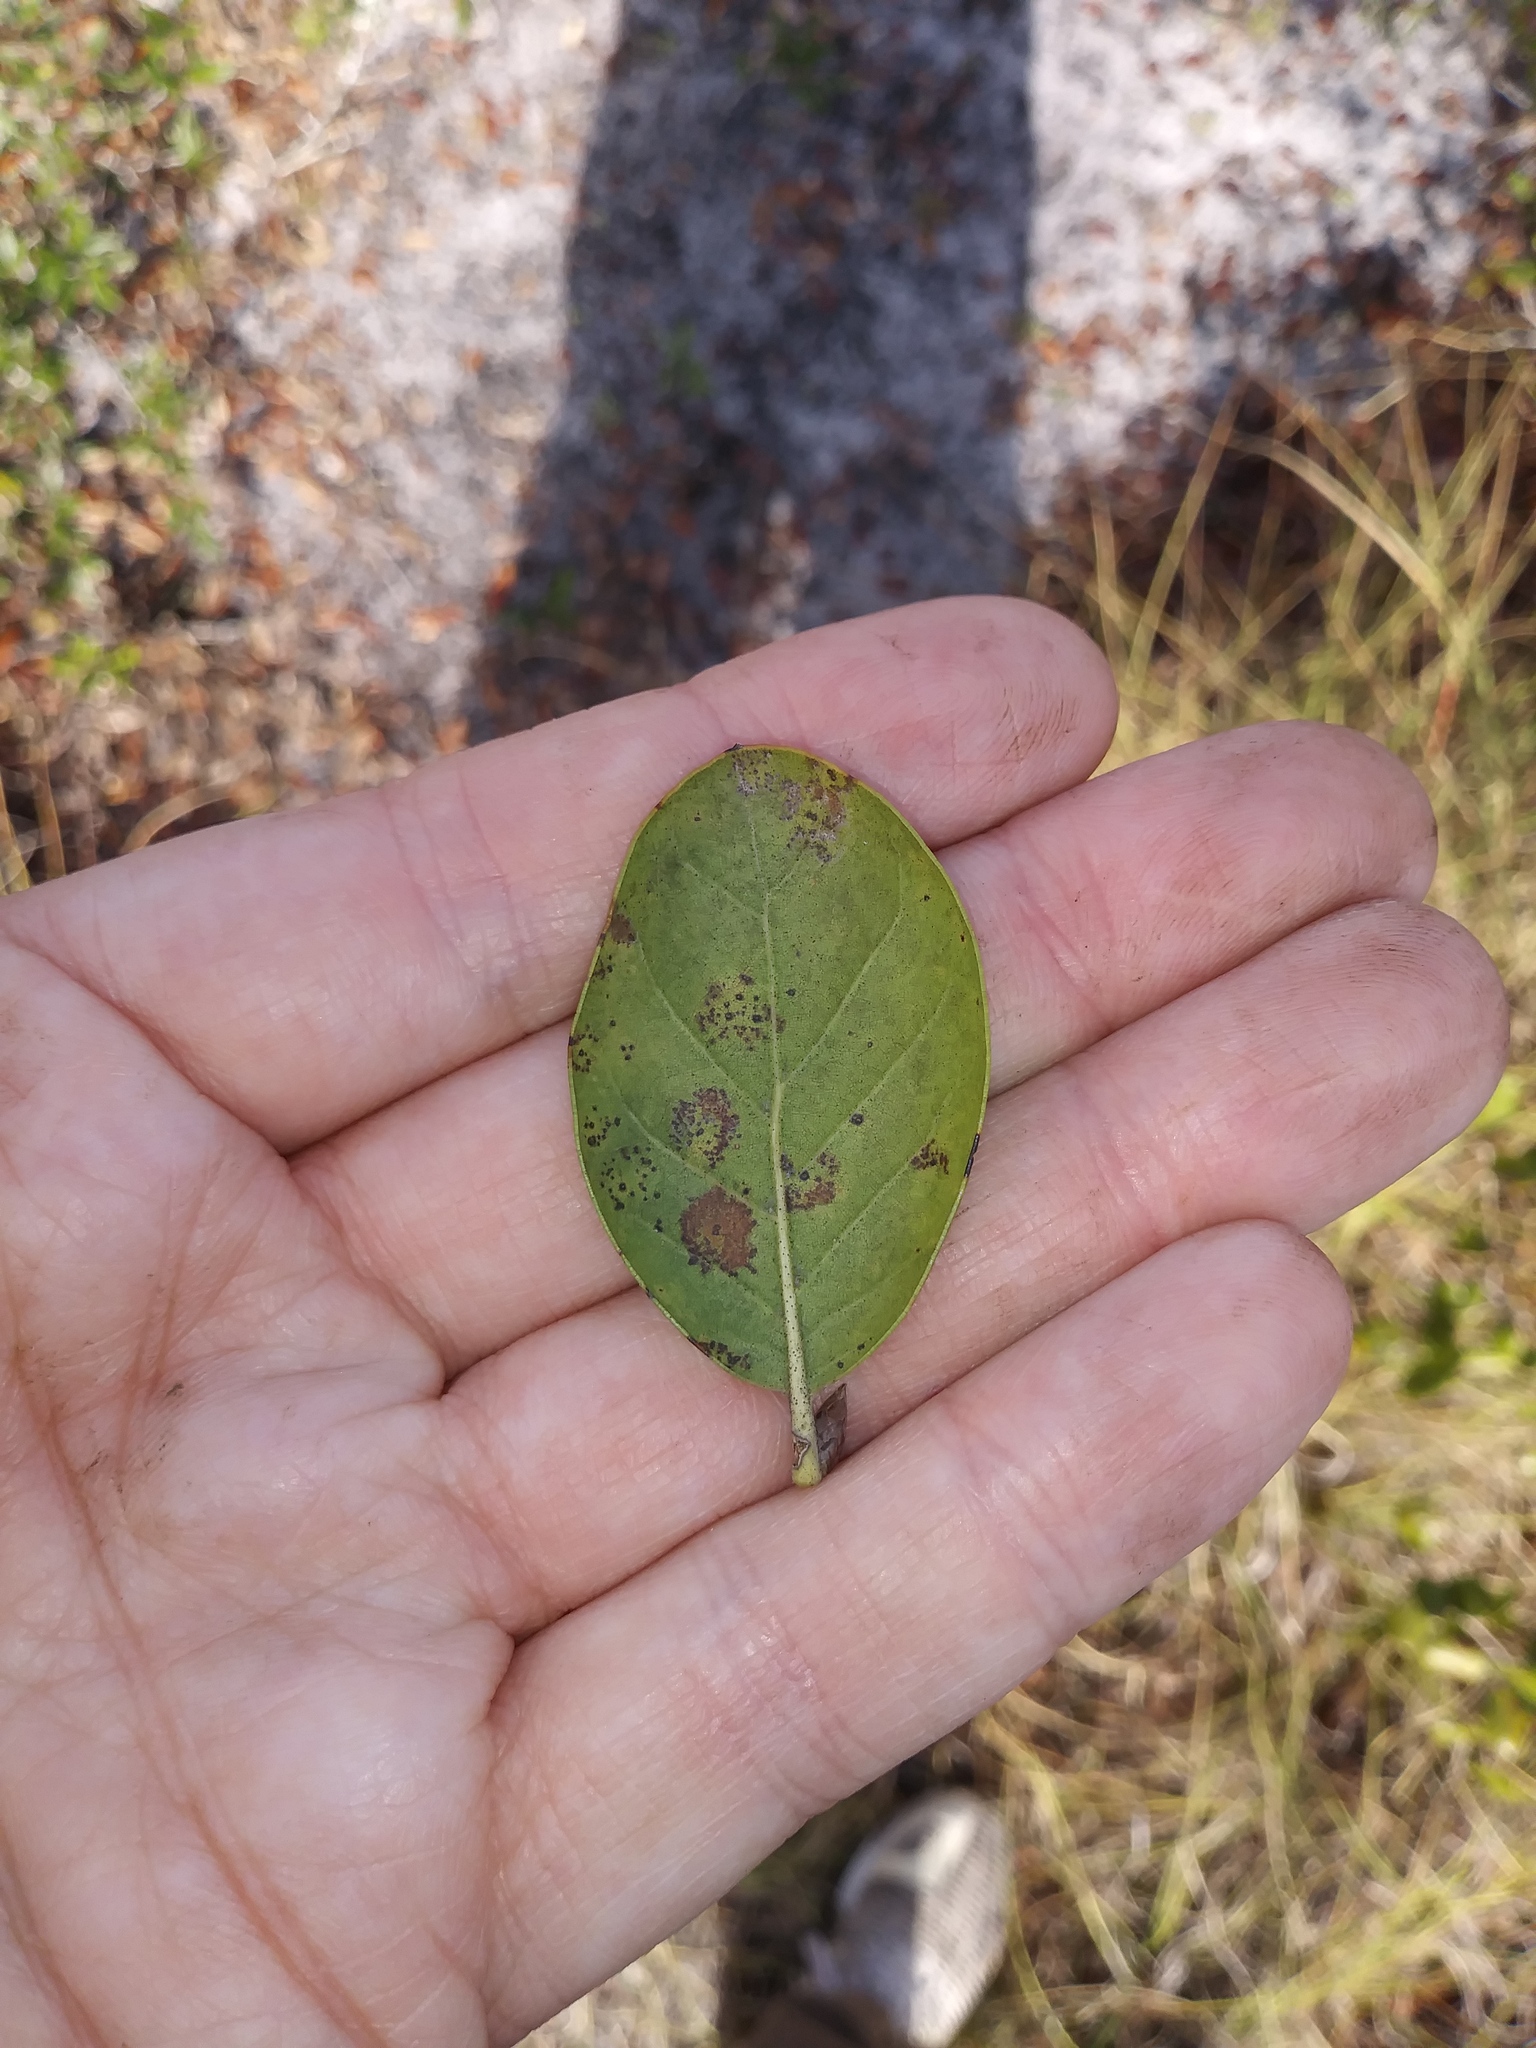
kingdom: Plantae
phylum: Tracheophyta
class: Magnoliopsida
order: Fagales
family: Fagaceae
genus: Quercus
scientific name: Quercus myrtifolia
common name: Myrtle oak
